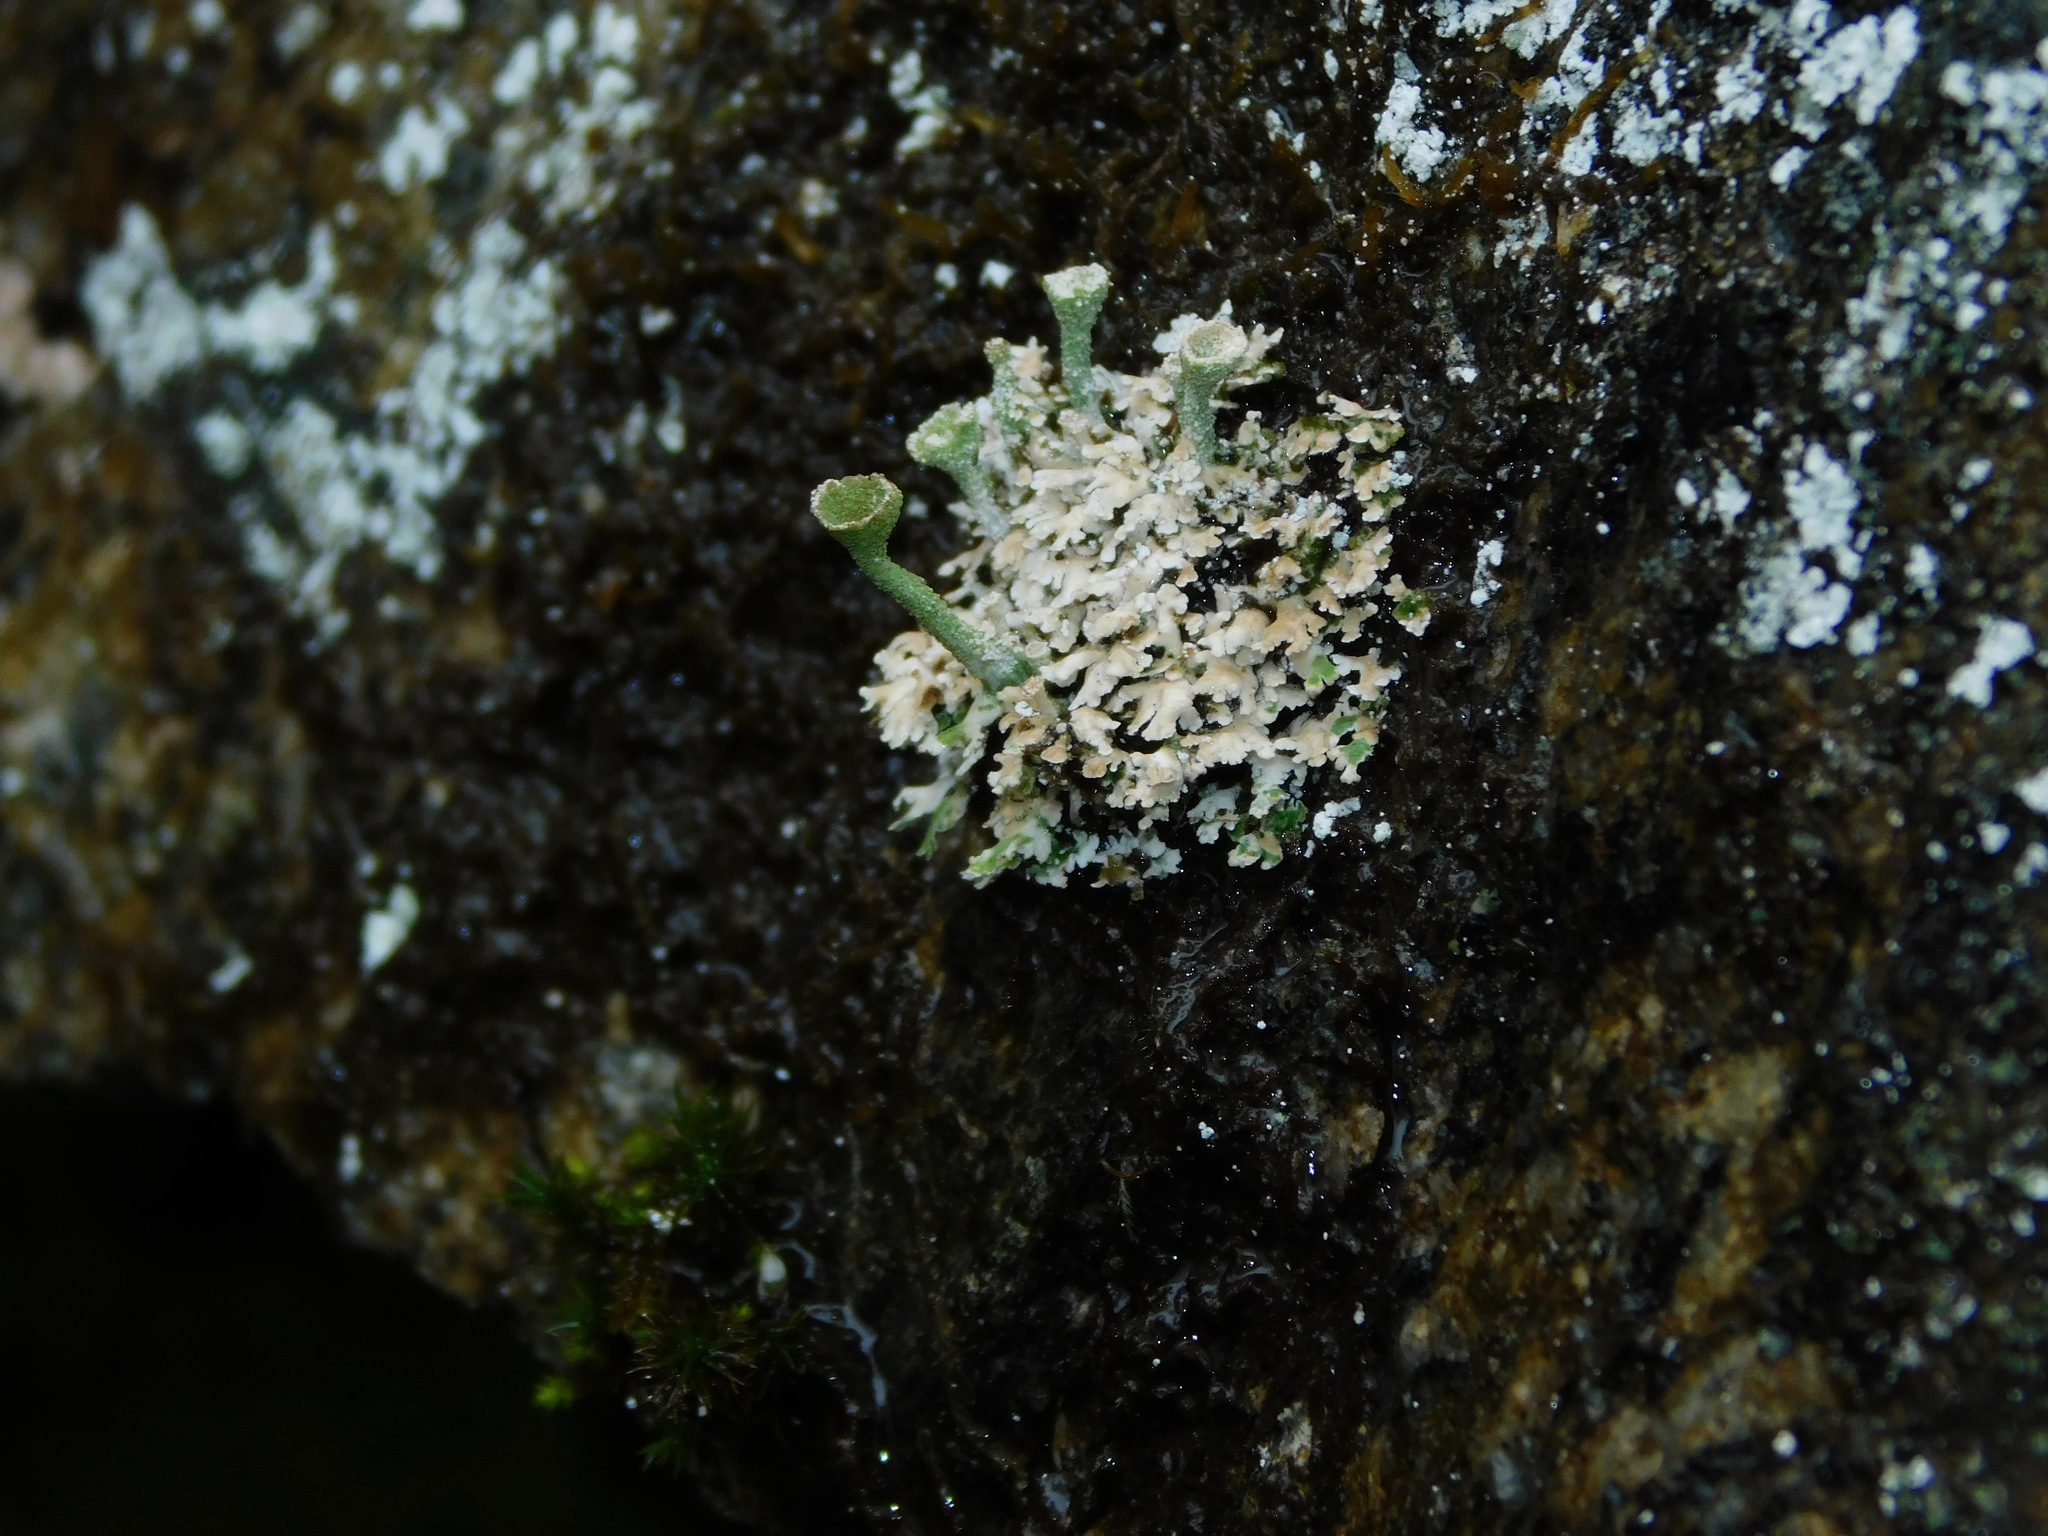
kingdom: Fungi
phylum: Ascomycota
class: Lecanoromycetes
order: Lecanorales
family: Cladoniaceae
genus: Cladonia
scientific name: Cladonia grayi
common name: Gray's cup lichen
